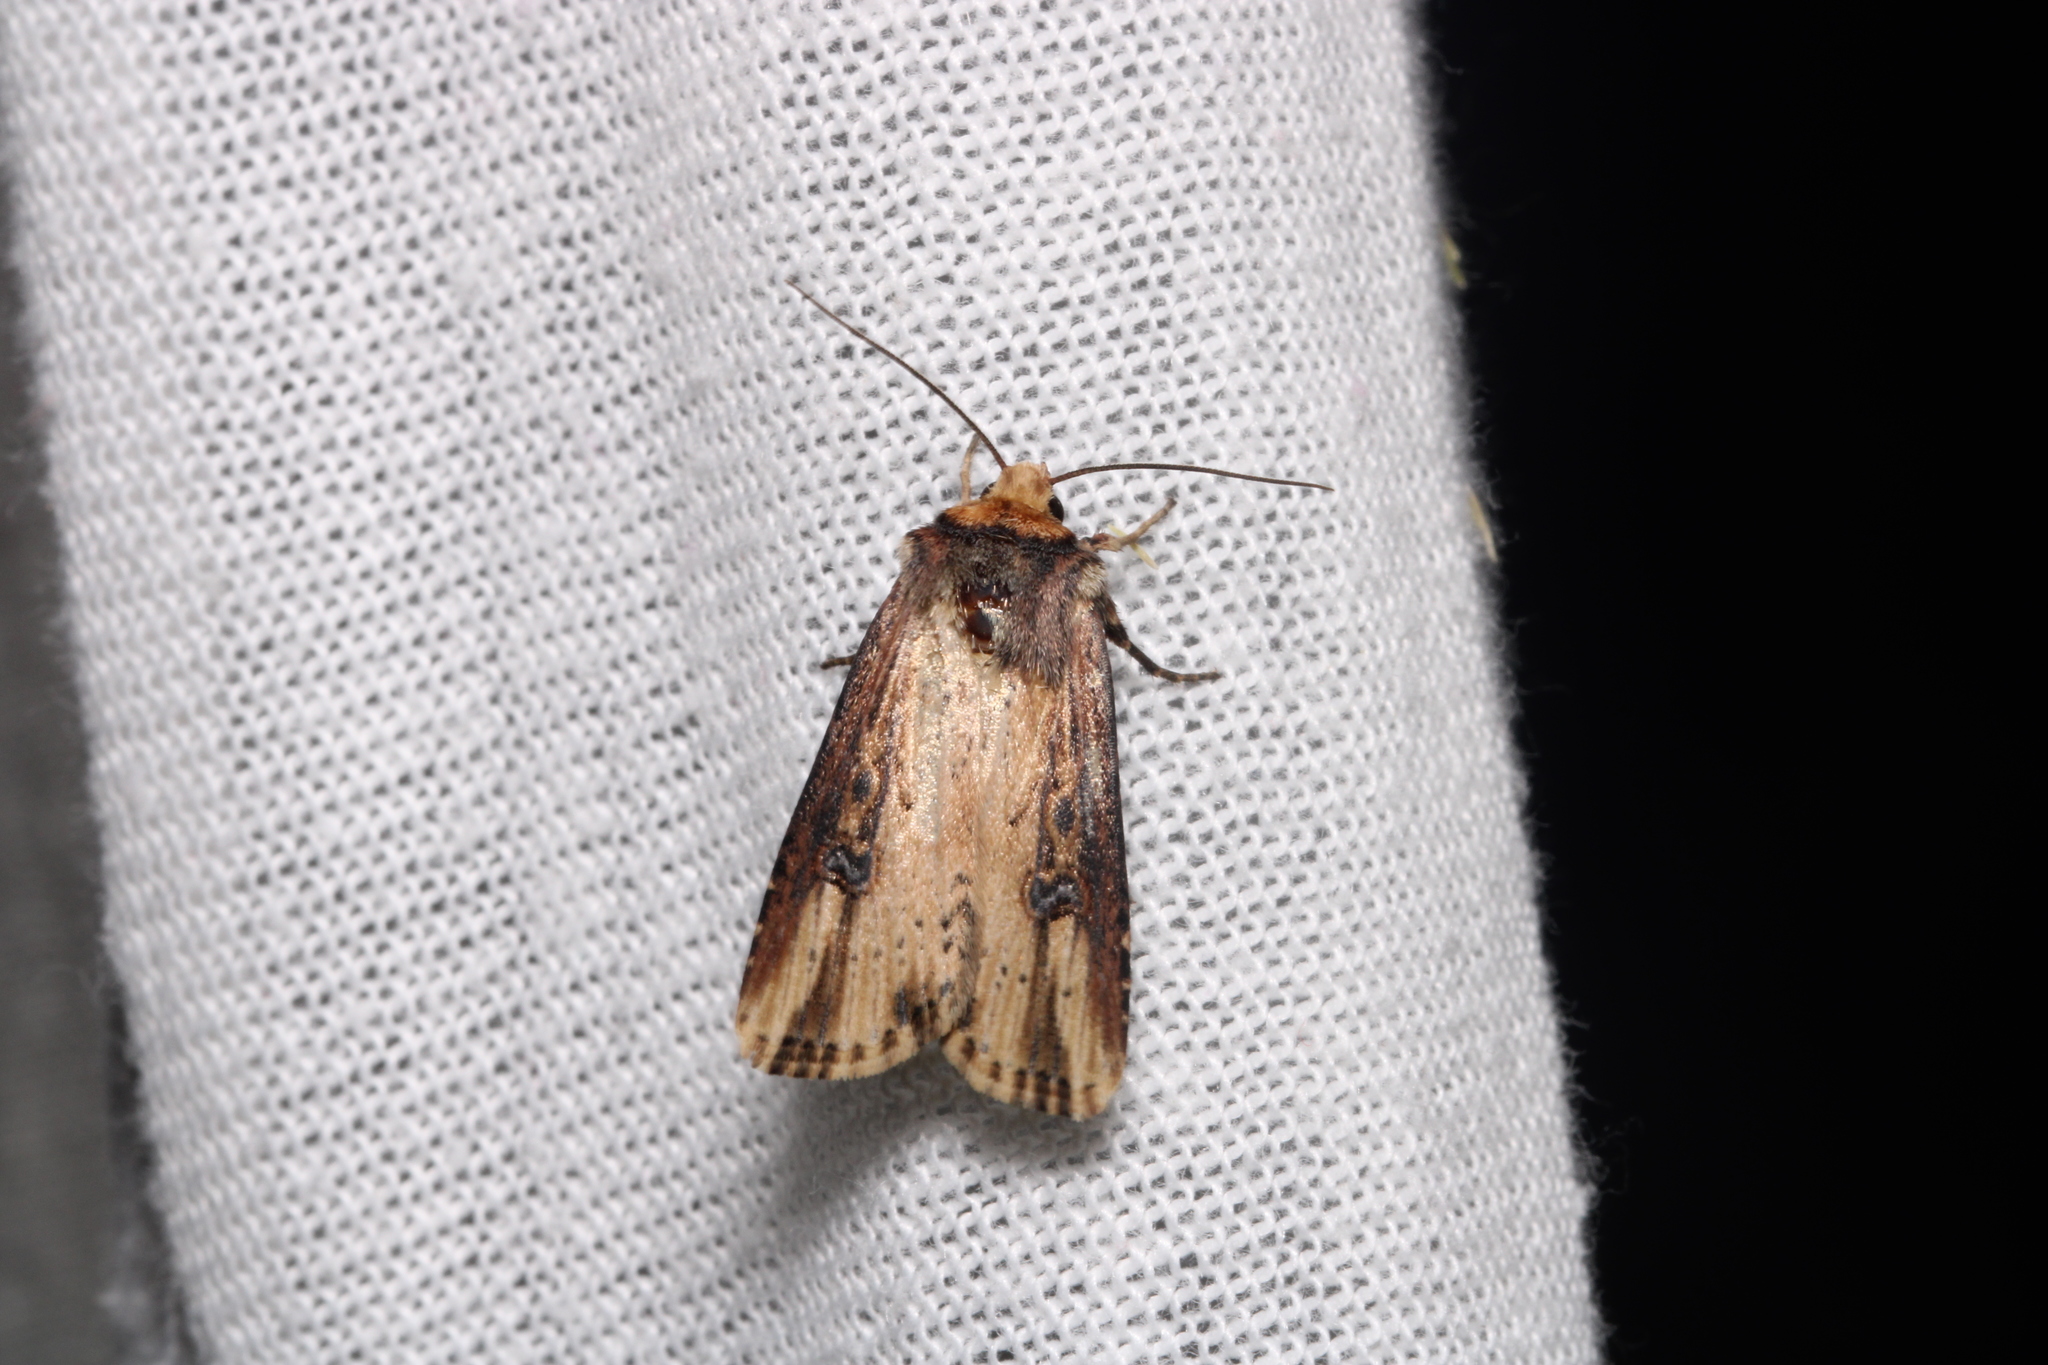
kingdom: Animalia
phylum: Arthropoda
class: Insecta
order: Lepidoptera
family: Noctuidae
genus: Axylia
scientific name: Axylia putris
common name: Flame
